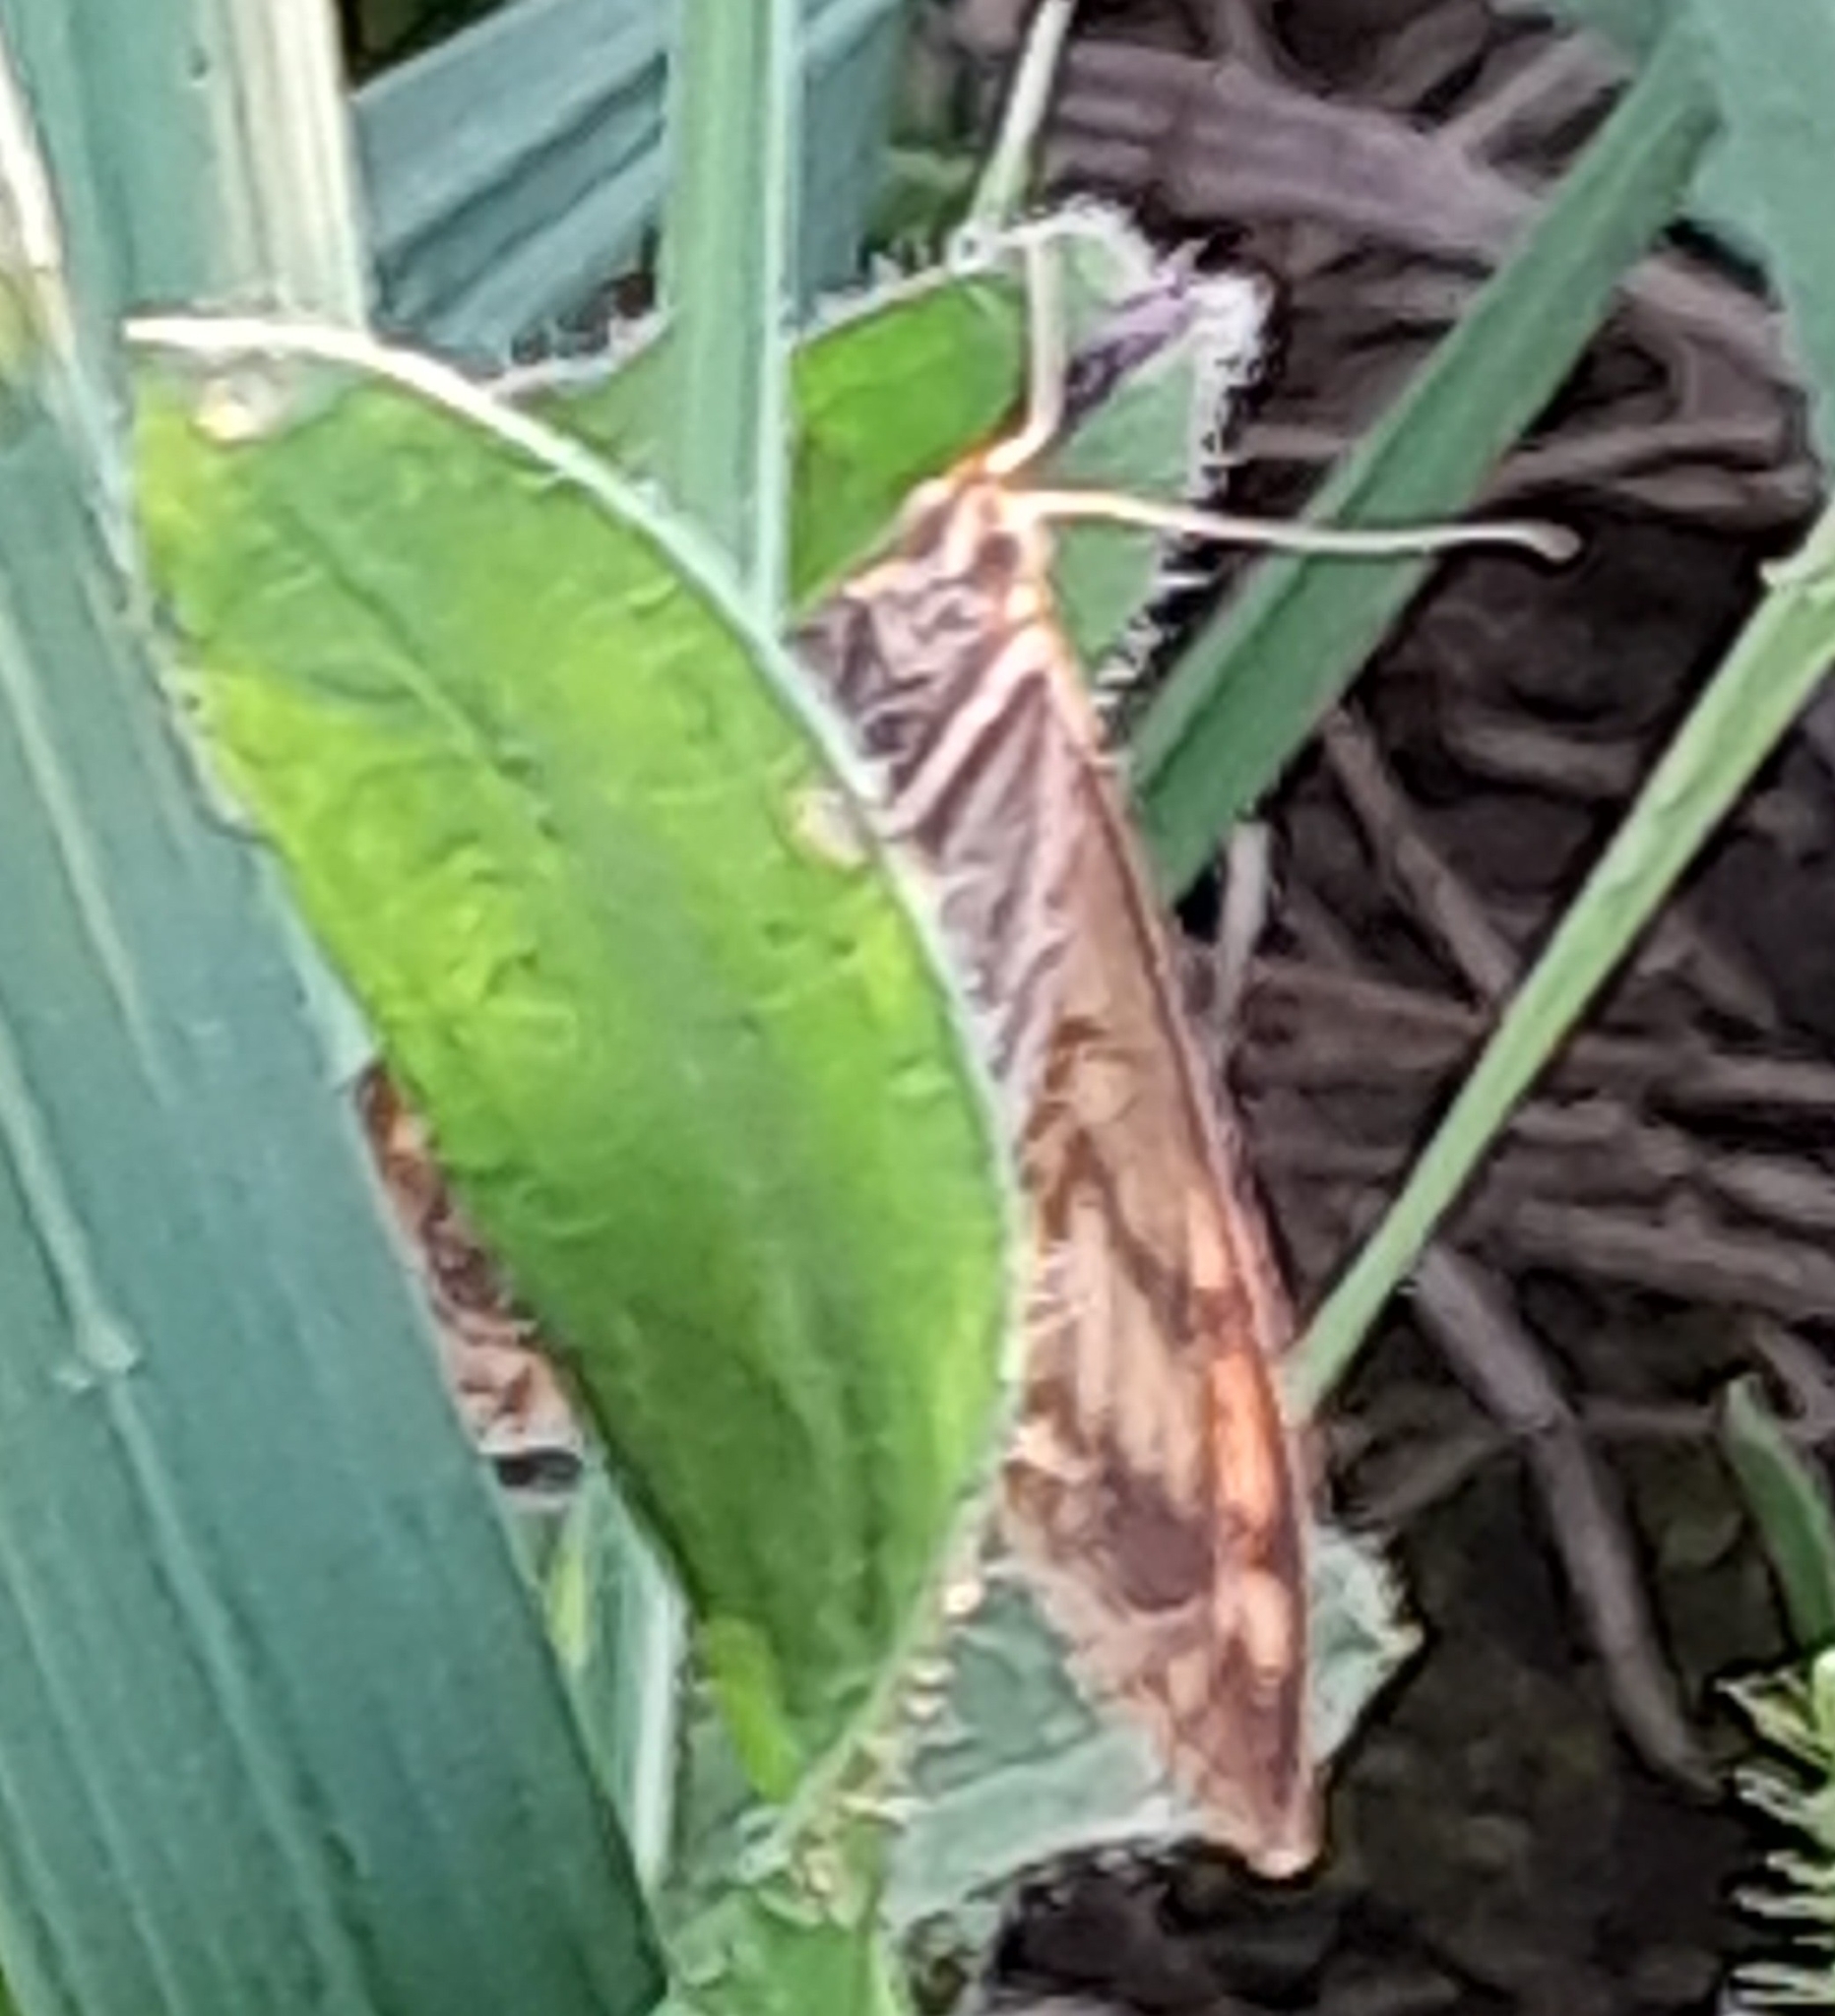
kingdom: Animalia
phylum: Arthropoda
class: Insecta
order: Lepidoptera
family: Crambidae
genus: Sitochroa
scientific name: Sitochroa verticalis
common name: Lesser pearl
